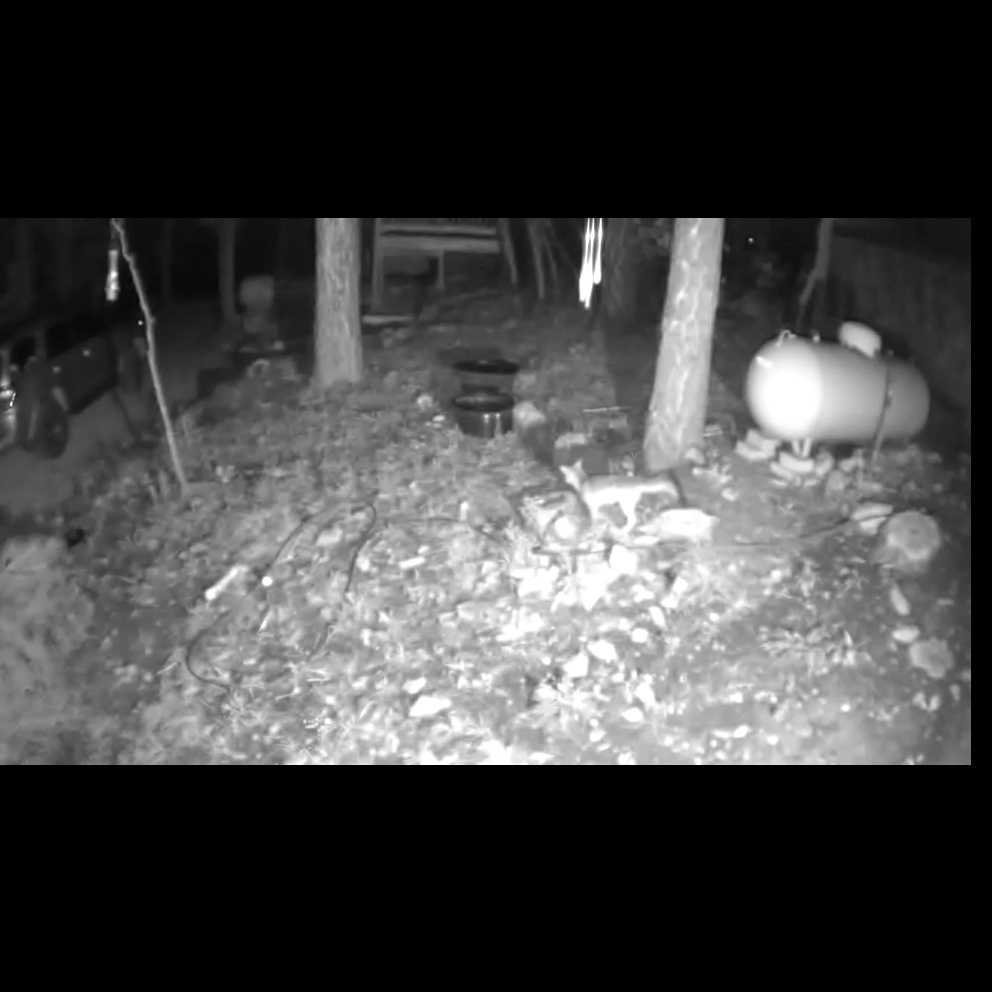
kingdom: Animalia
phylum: Chordata
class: Mammalia
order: Carnivora
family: Canidae
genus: Urocyon
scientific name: Urocyon cinereoargenteus
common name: Gray fox
